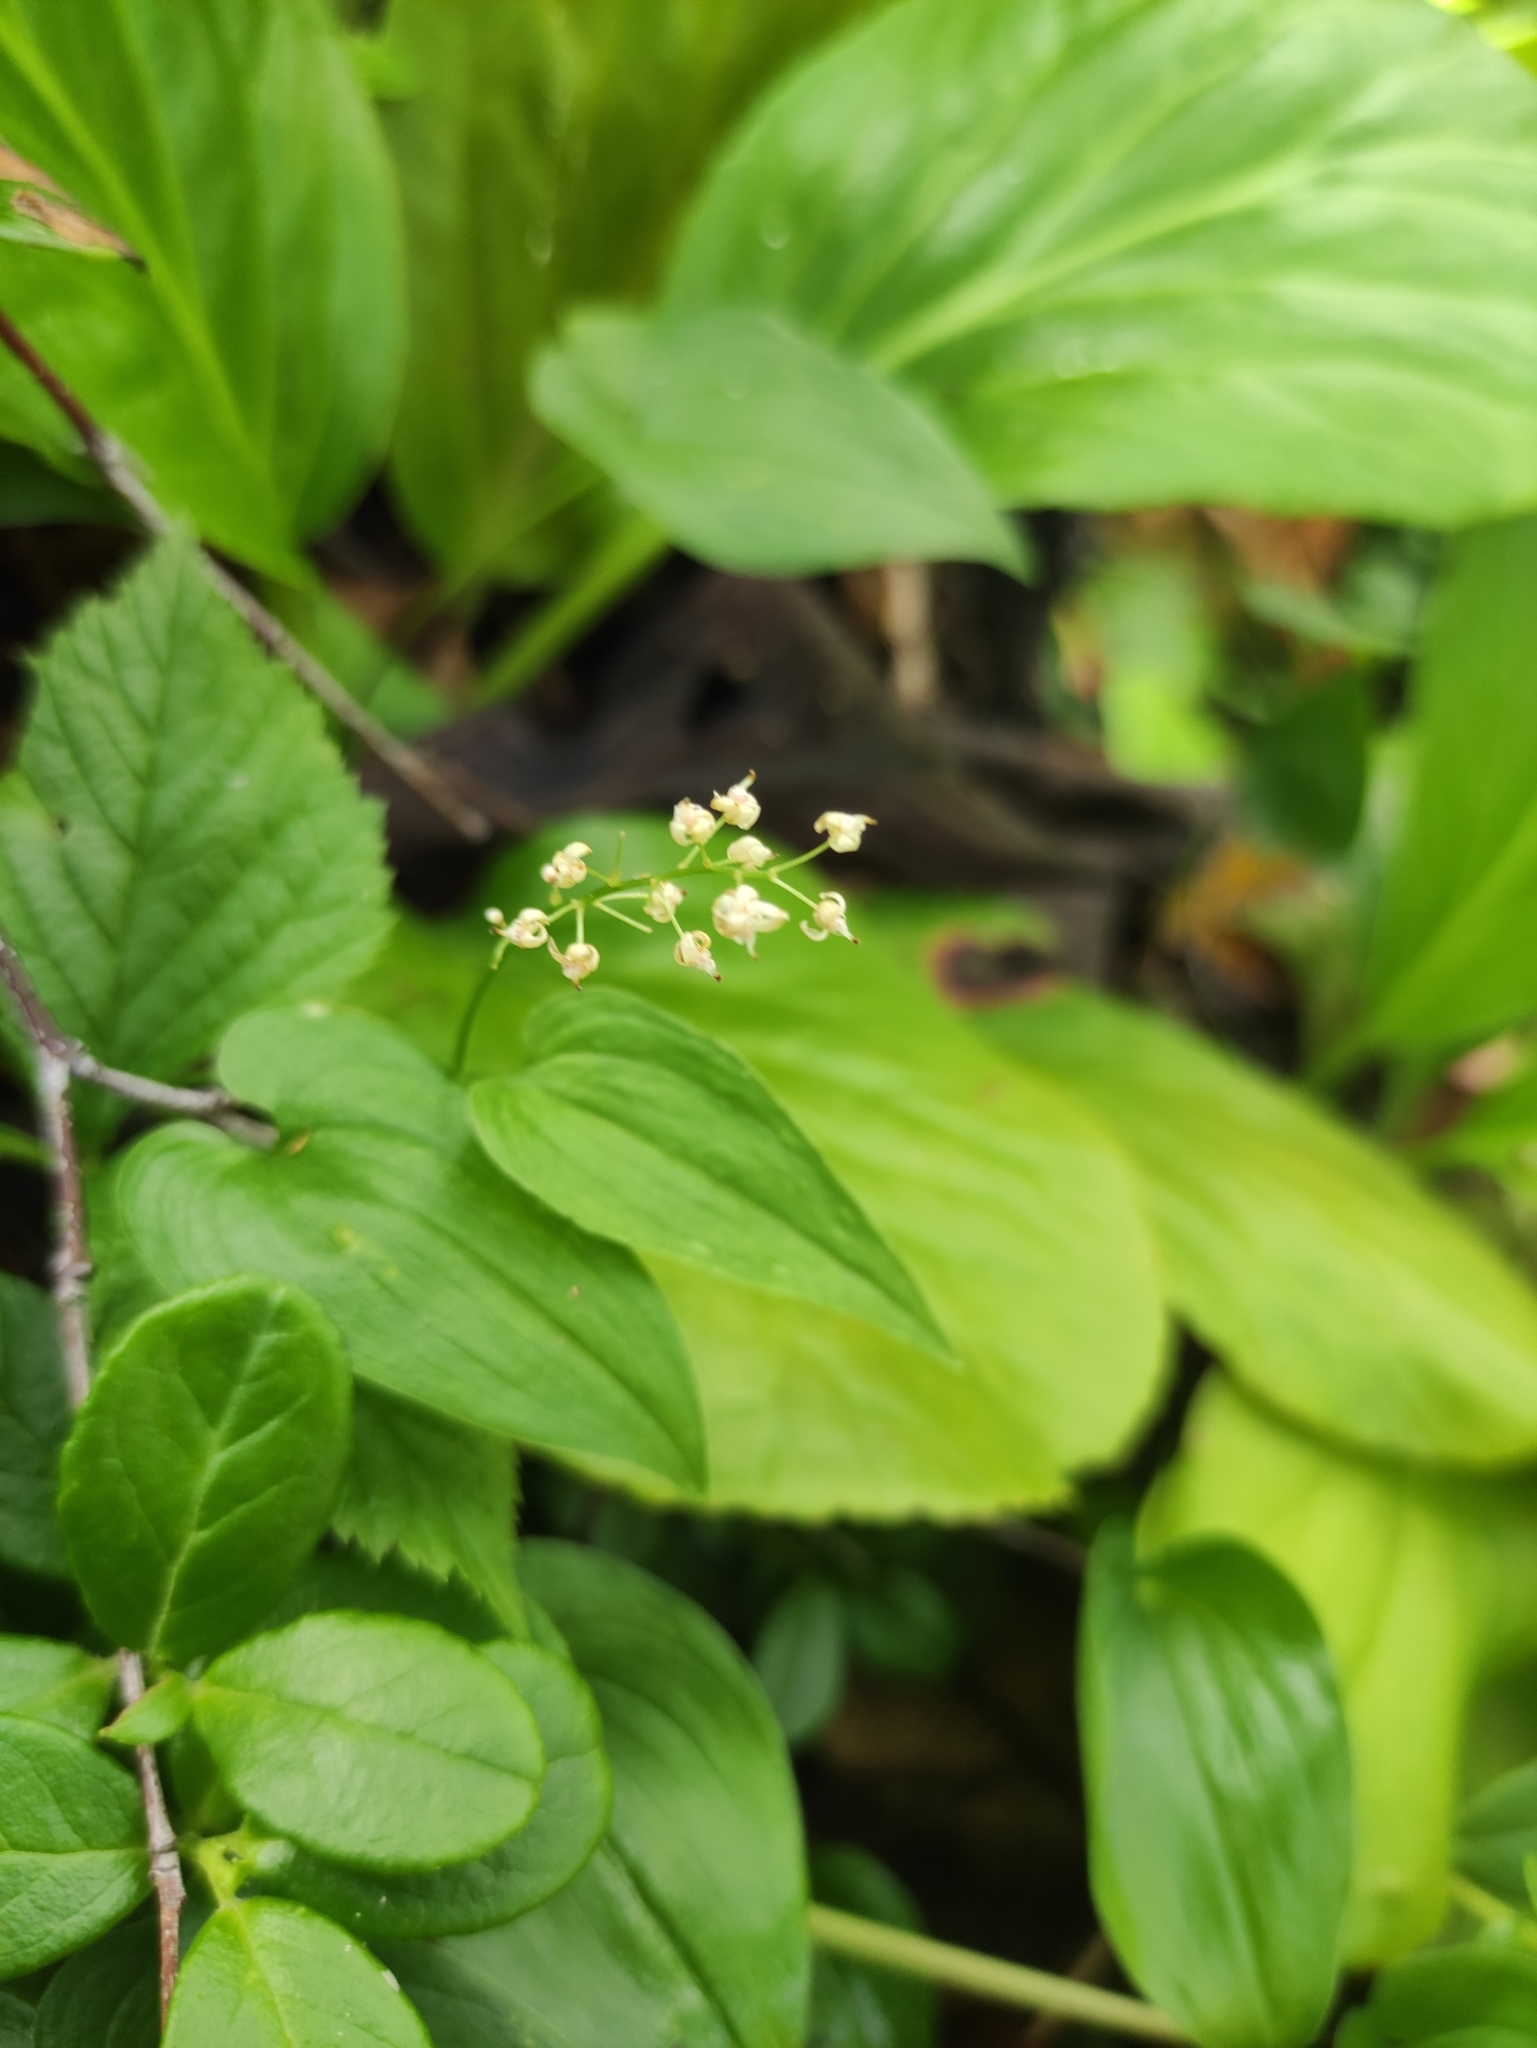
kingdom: Plantae
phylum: Tracheophyta
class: Liliopsida
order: Asparagales
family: Asparagaceae
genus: Maianthemum
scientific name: Maianthemum bifolium
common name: May lily
